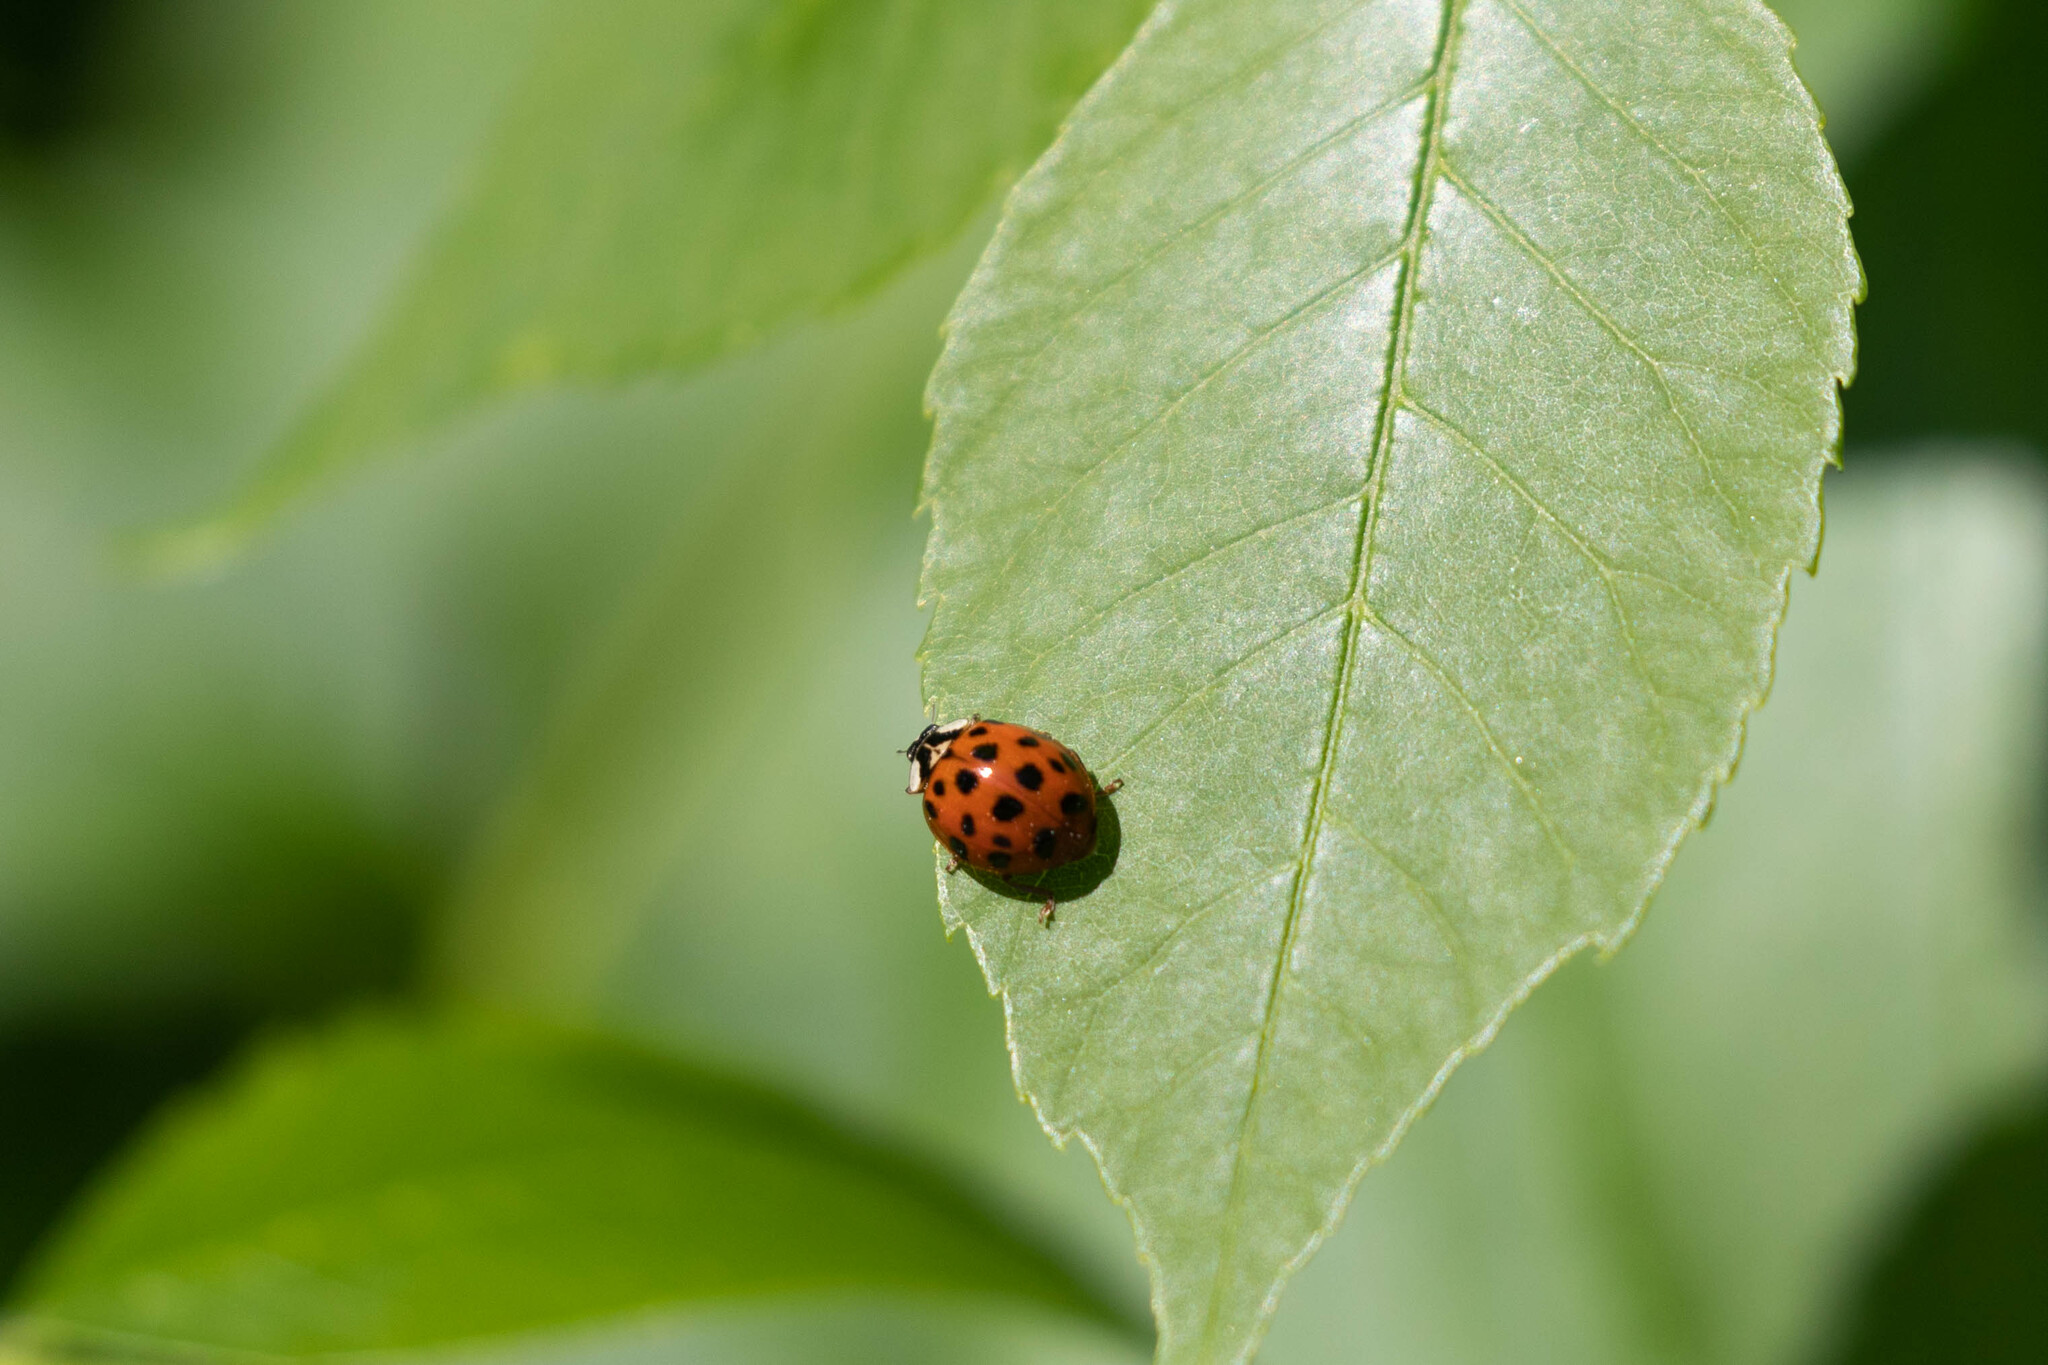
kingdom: Animalia
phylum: Arthropoda
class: Insecta
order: Coleoptera
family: Coccinellidae
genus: Harmonia
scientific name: Harmonia axyridis
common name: Harlequin ladybird
